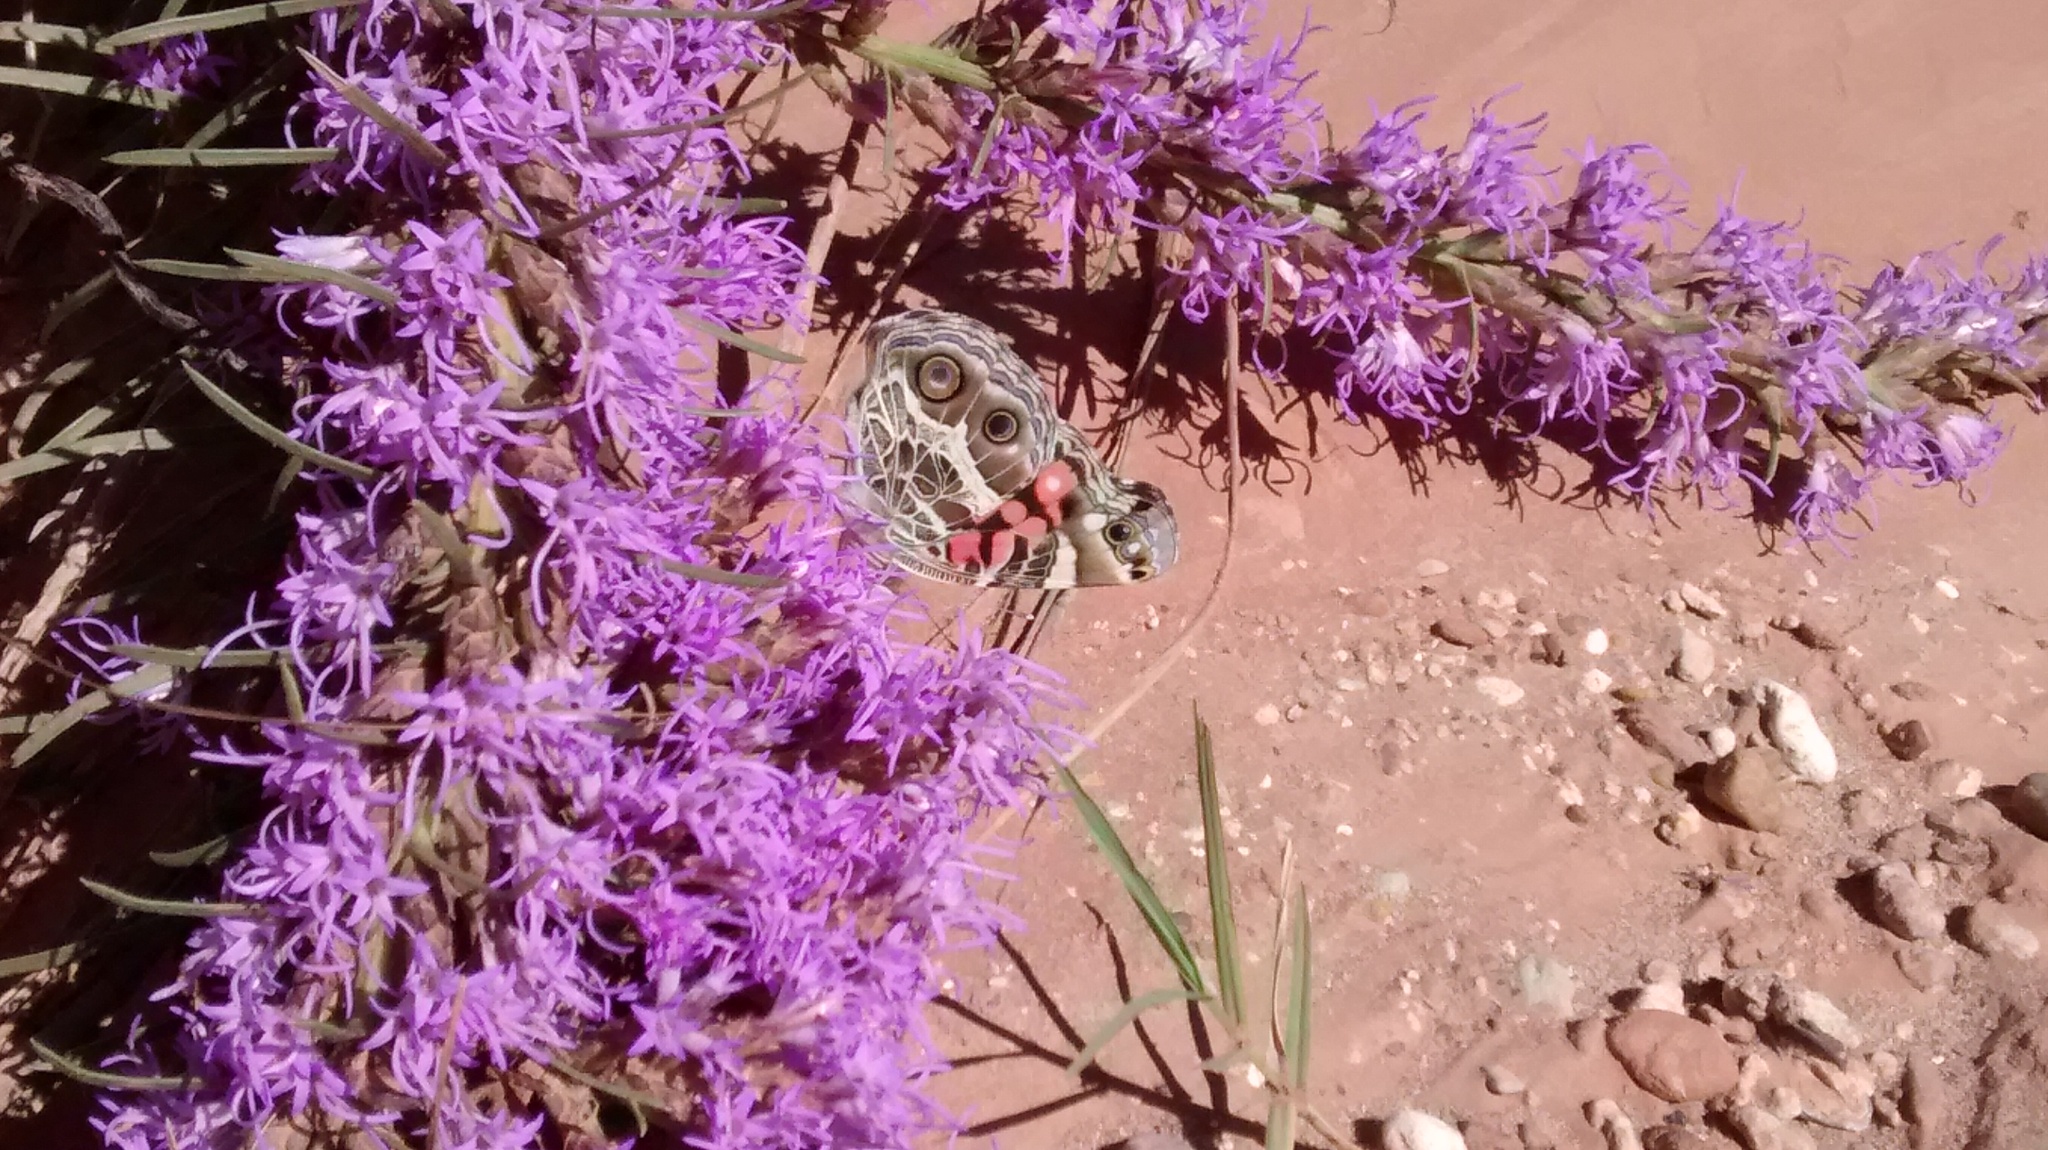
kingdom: Animalia
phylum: Arthropoda
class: Insecta
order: Lepidoptera
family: Nymphalidae
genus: Vanessa
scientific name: Vanessa virginiensis
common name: American lady
